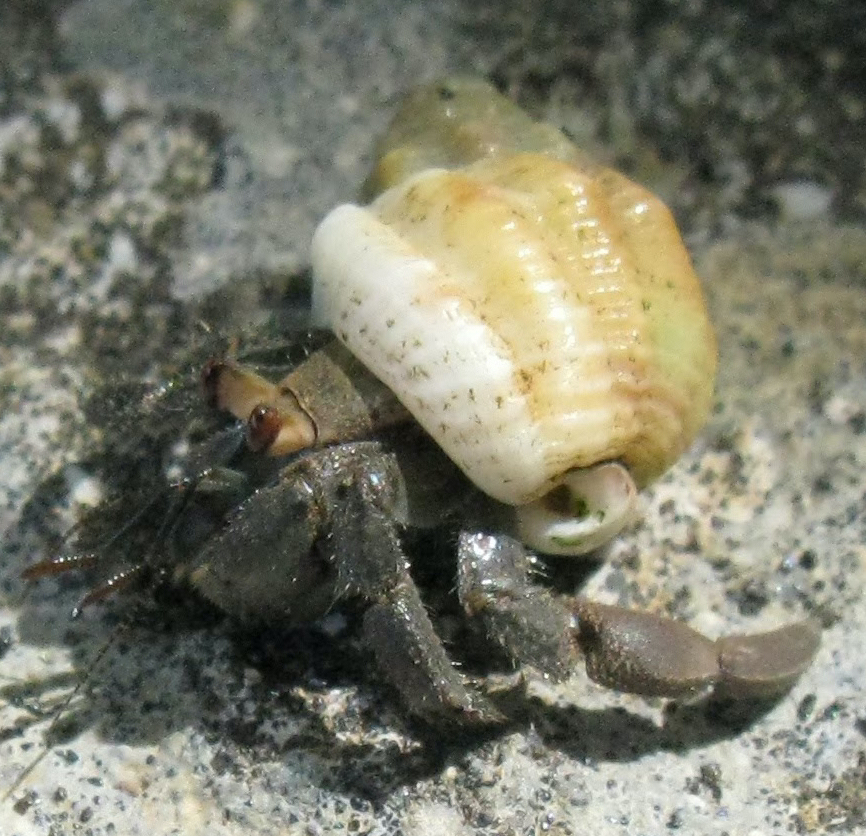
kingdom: Animalia
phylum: Arthropoda
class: Malacostraca
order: Decapoda
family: Coenobitidae
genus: Coenobita
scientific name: Coenobita compressus
